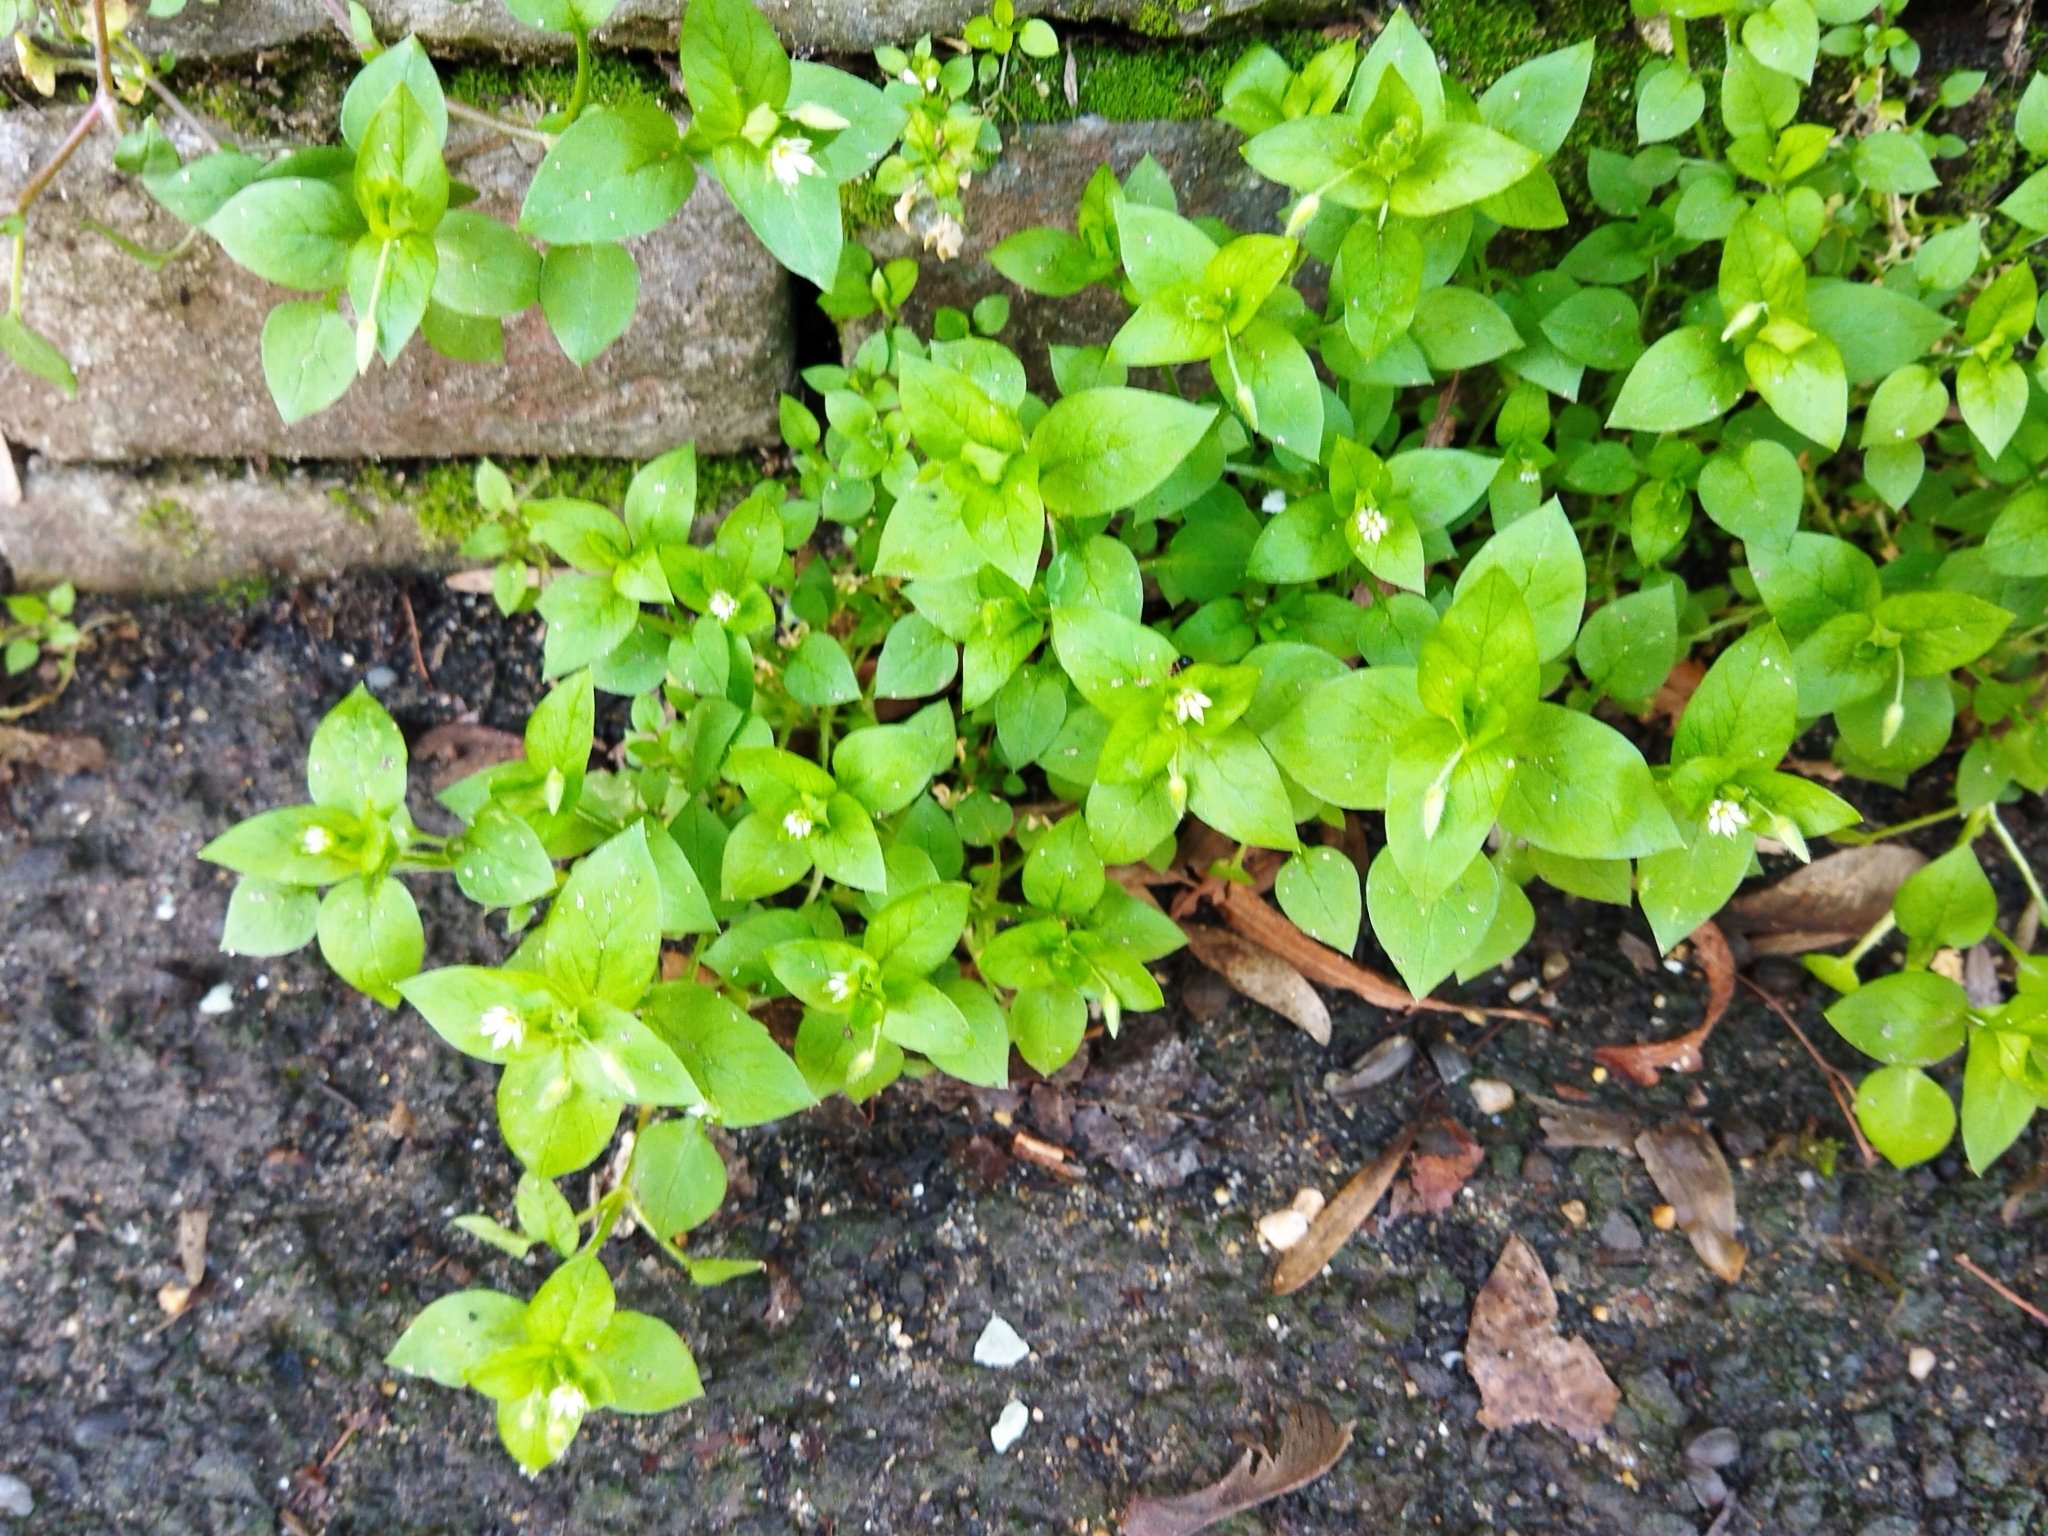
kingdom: Plantae
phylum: Tracheophyta
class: Magnoliopsida
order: Caryophyllales
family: Caryophyllaceae
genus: Stellaria
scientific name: Stellaria media
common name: Common chickweed
